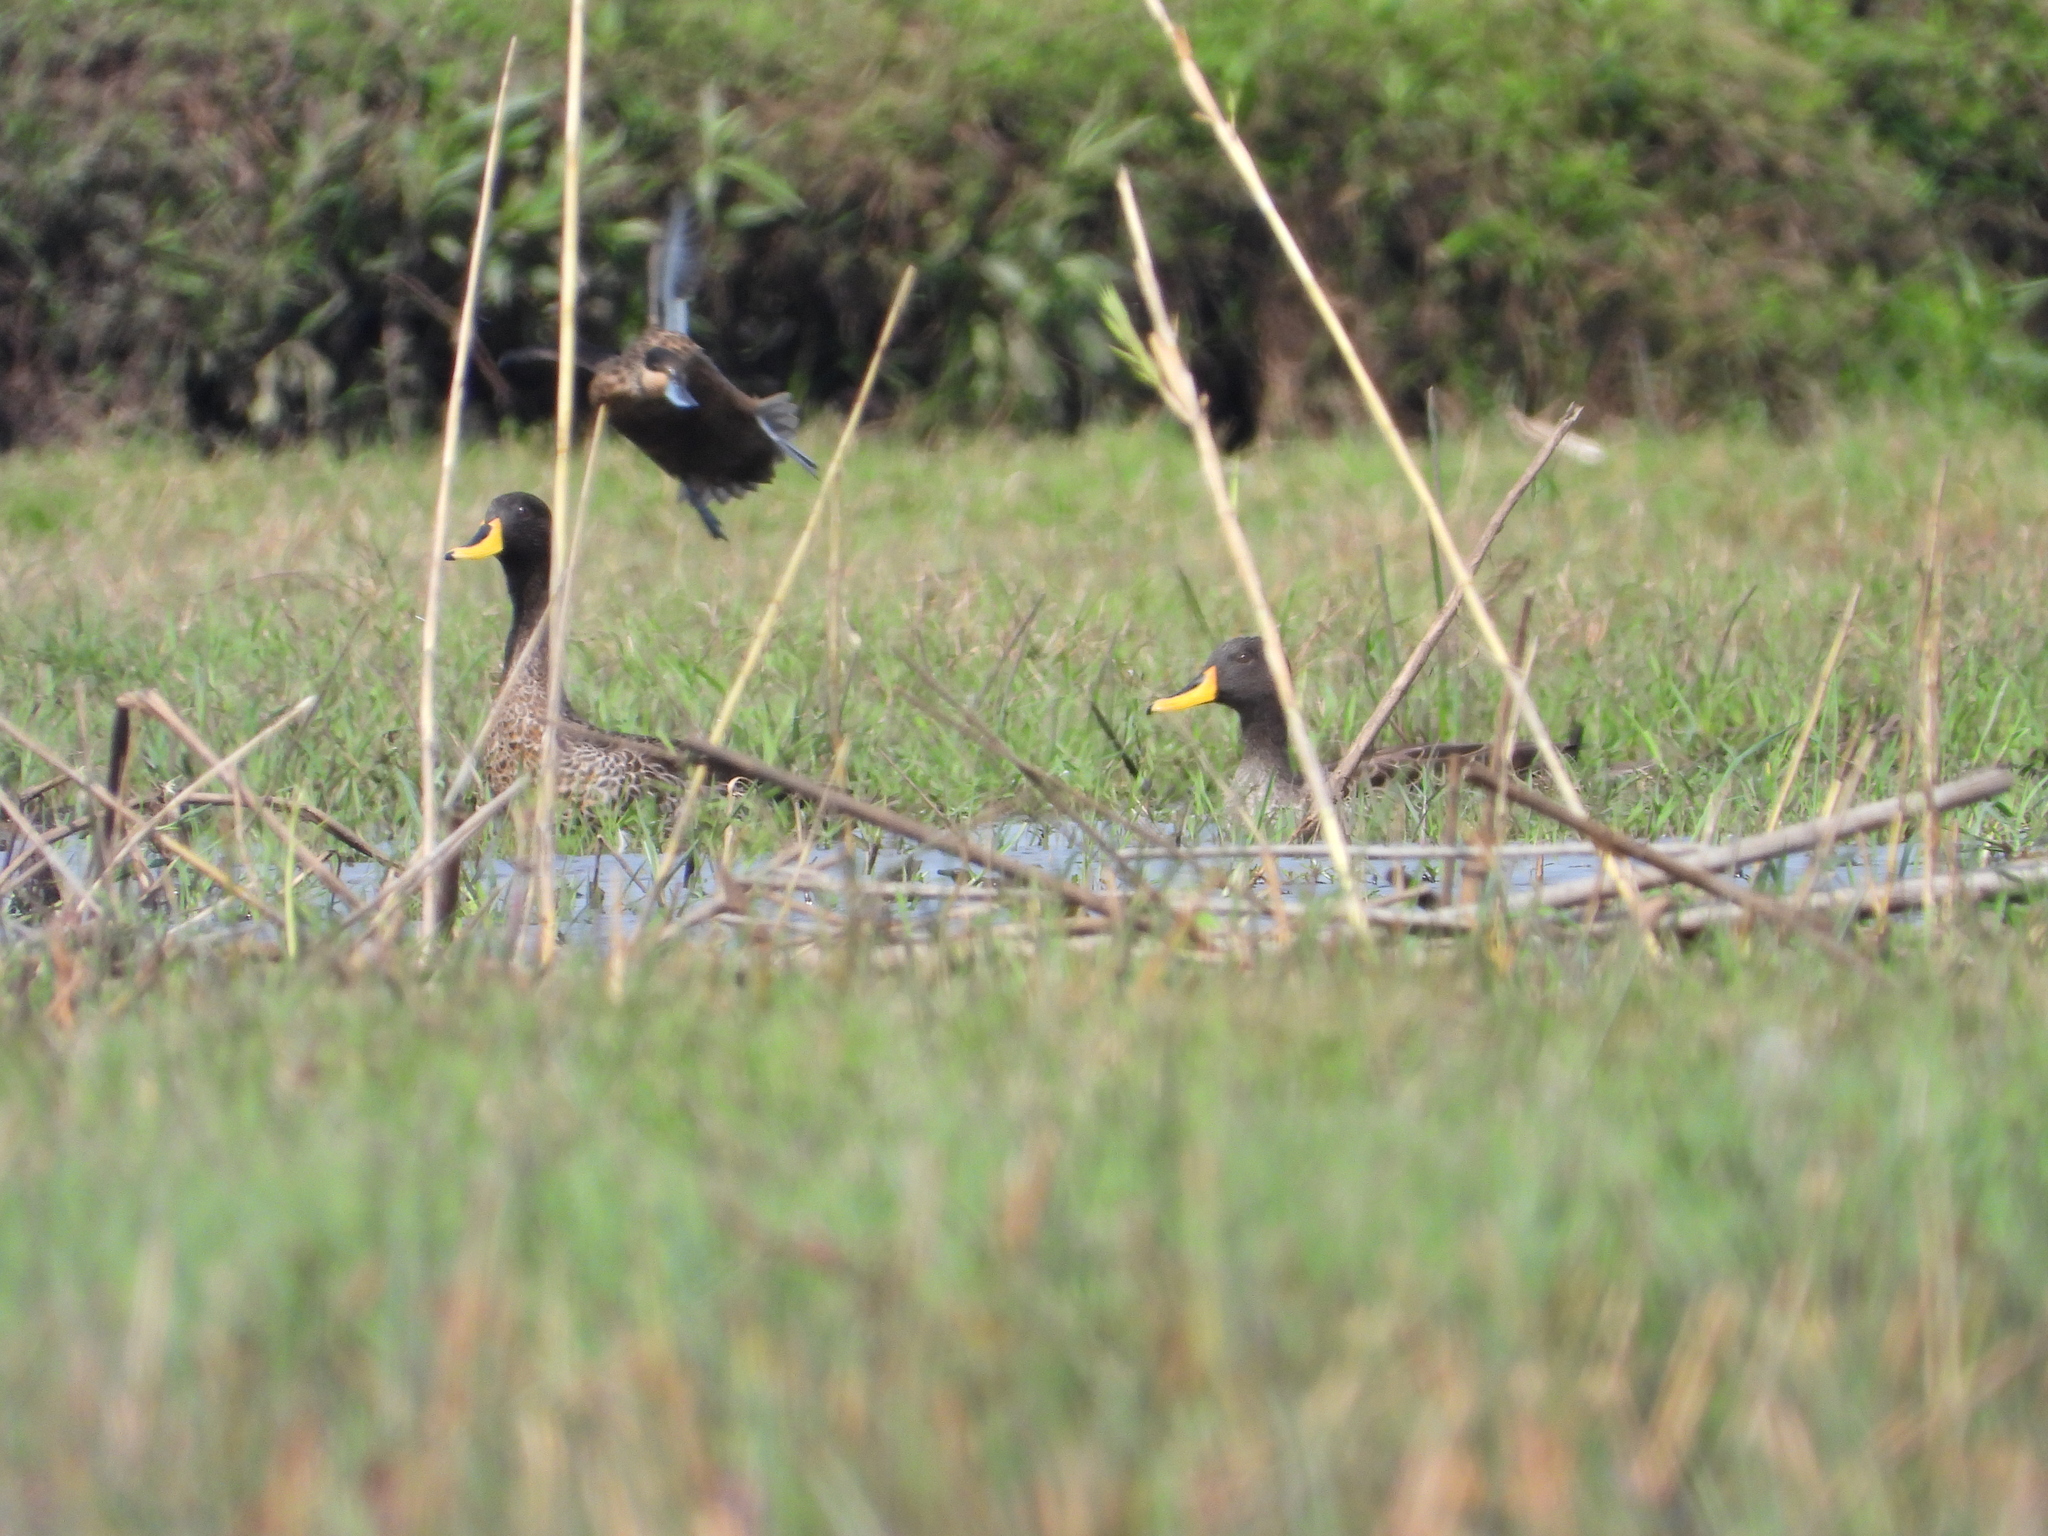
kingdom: Animalia
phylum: Chordata
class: Aves
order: Anseriformes
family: Anatidae
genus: Anas
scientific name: Anas undulata
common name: Yellow-billed duck
